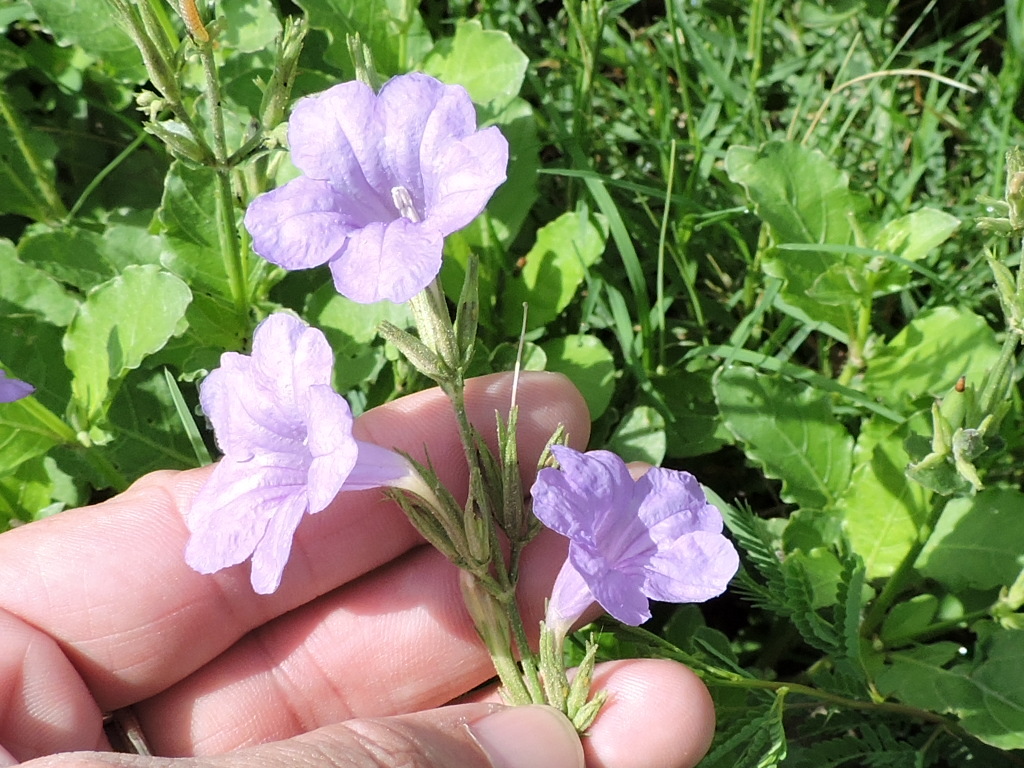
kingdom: Plantae
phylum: Tracheophyta
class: Magnoliopsida
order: Lamiales
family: Acanthaceae
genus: Ruellia
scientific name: Ruellia ciliatiflora
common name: Hairyflower wild petunia
